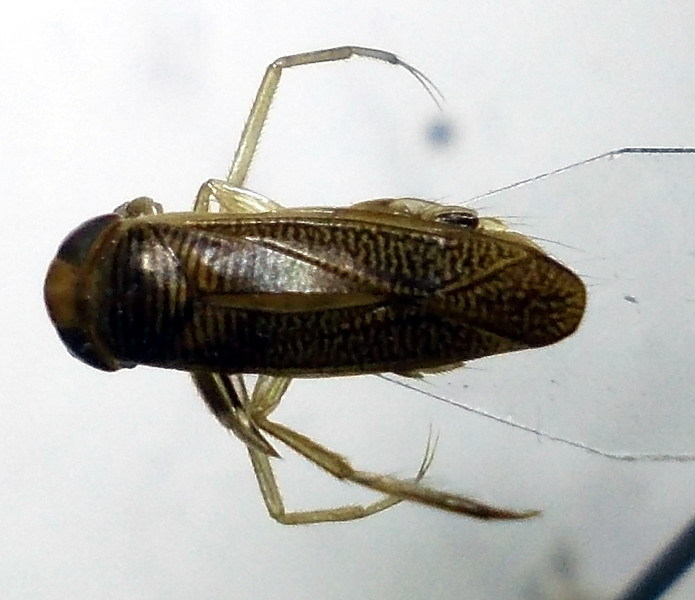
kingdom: Animalia
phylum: Arthropoda
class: Insecta
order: Hemiptera
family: Corixidae
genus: Sigara
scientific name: Sigara striata
